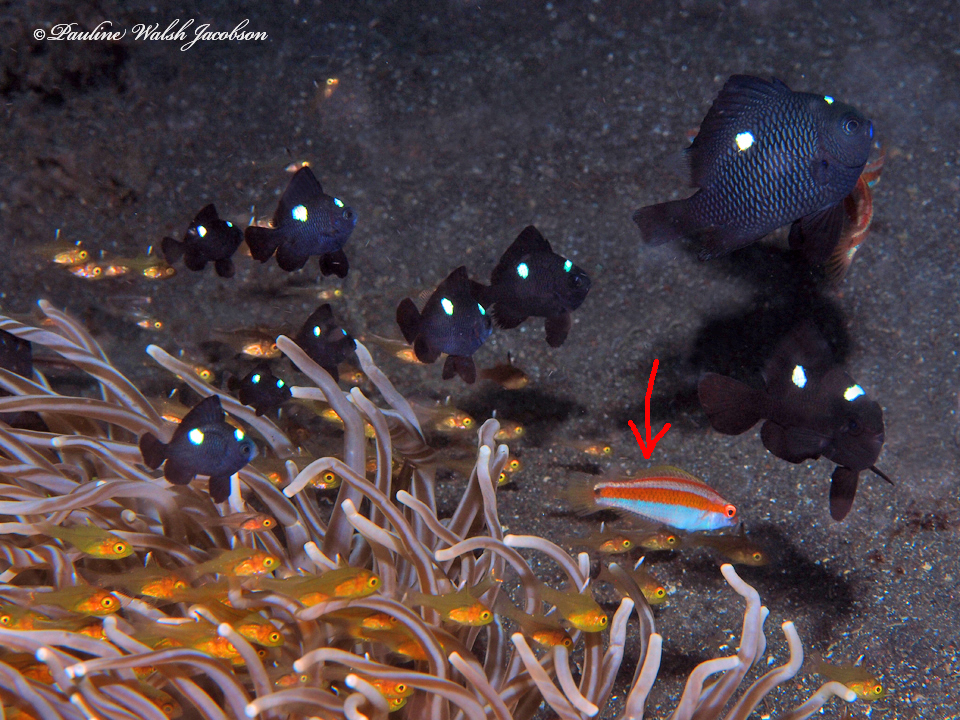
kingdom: Animalia
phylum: Chordata
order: Perciformes
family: Labridae
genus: Halichoeres
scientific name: Halichoeres hartzfeldii
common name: Goldstripe wrasse
